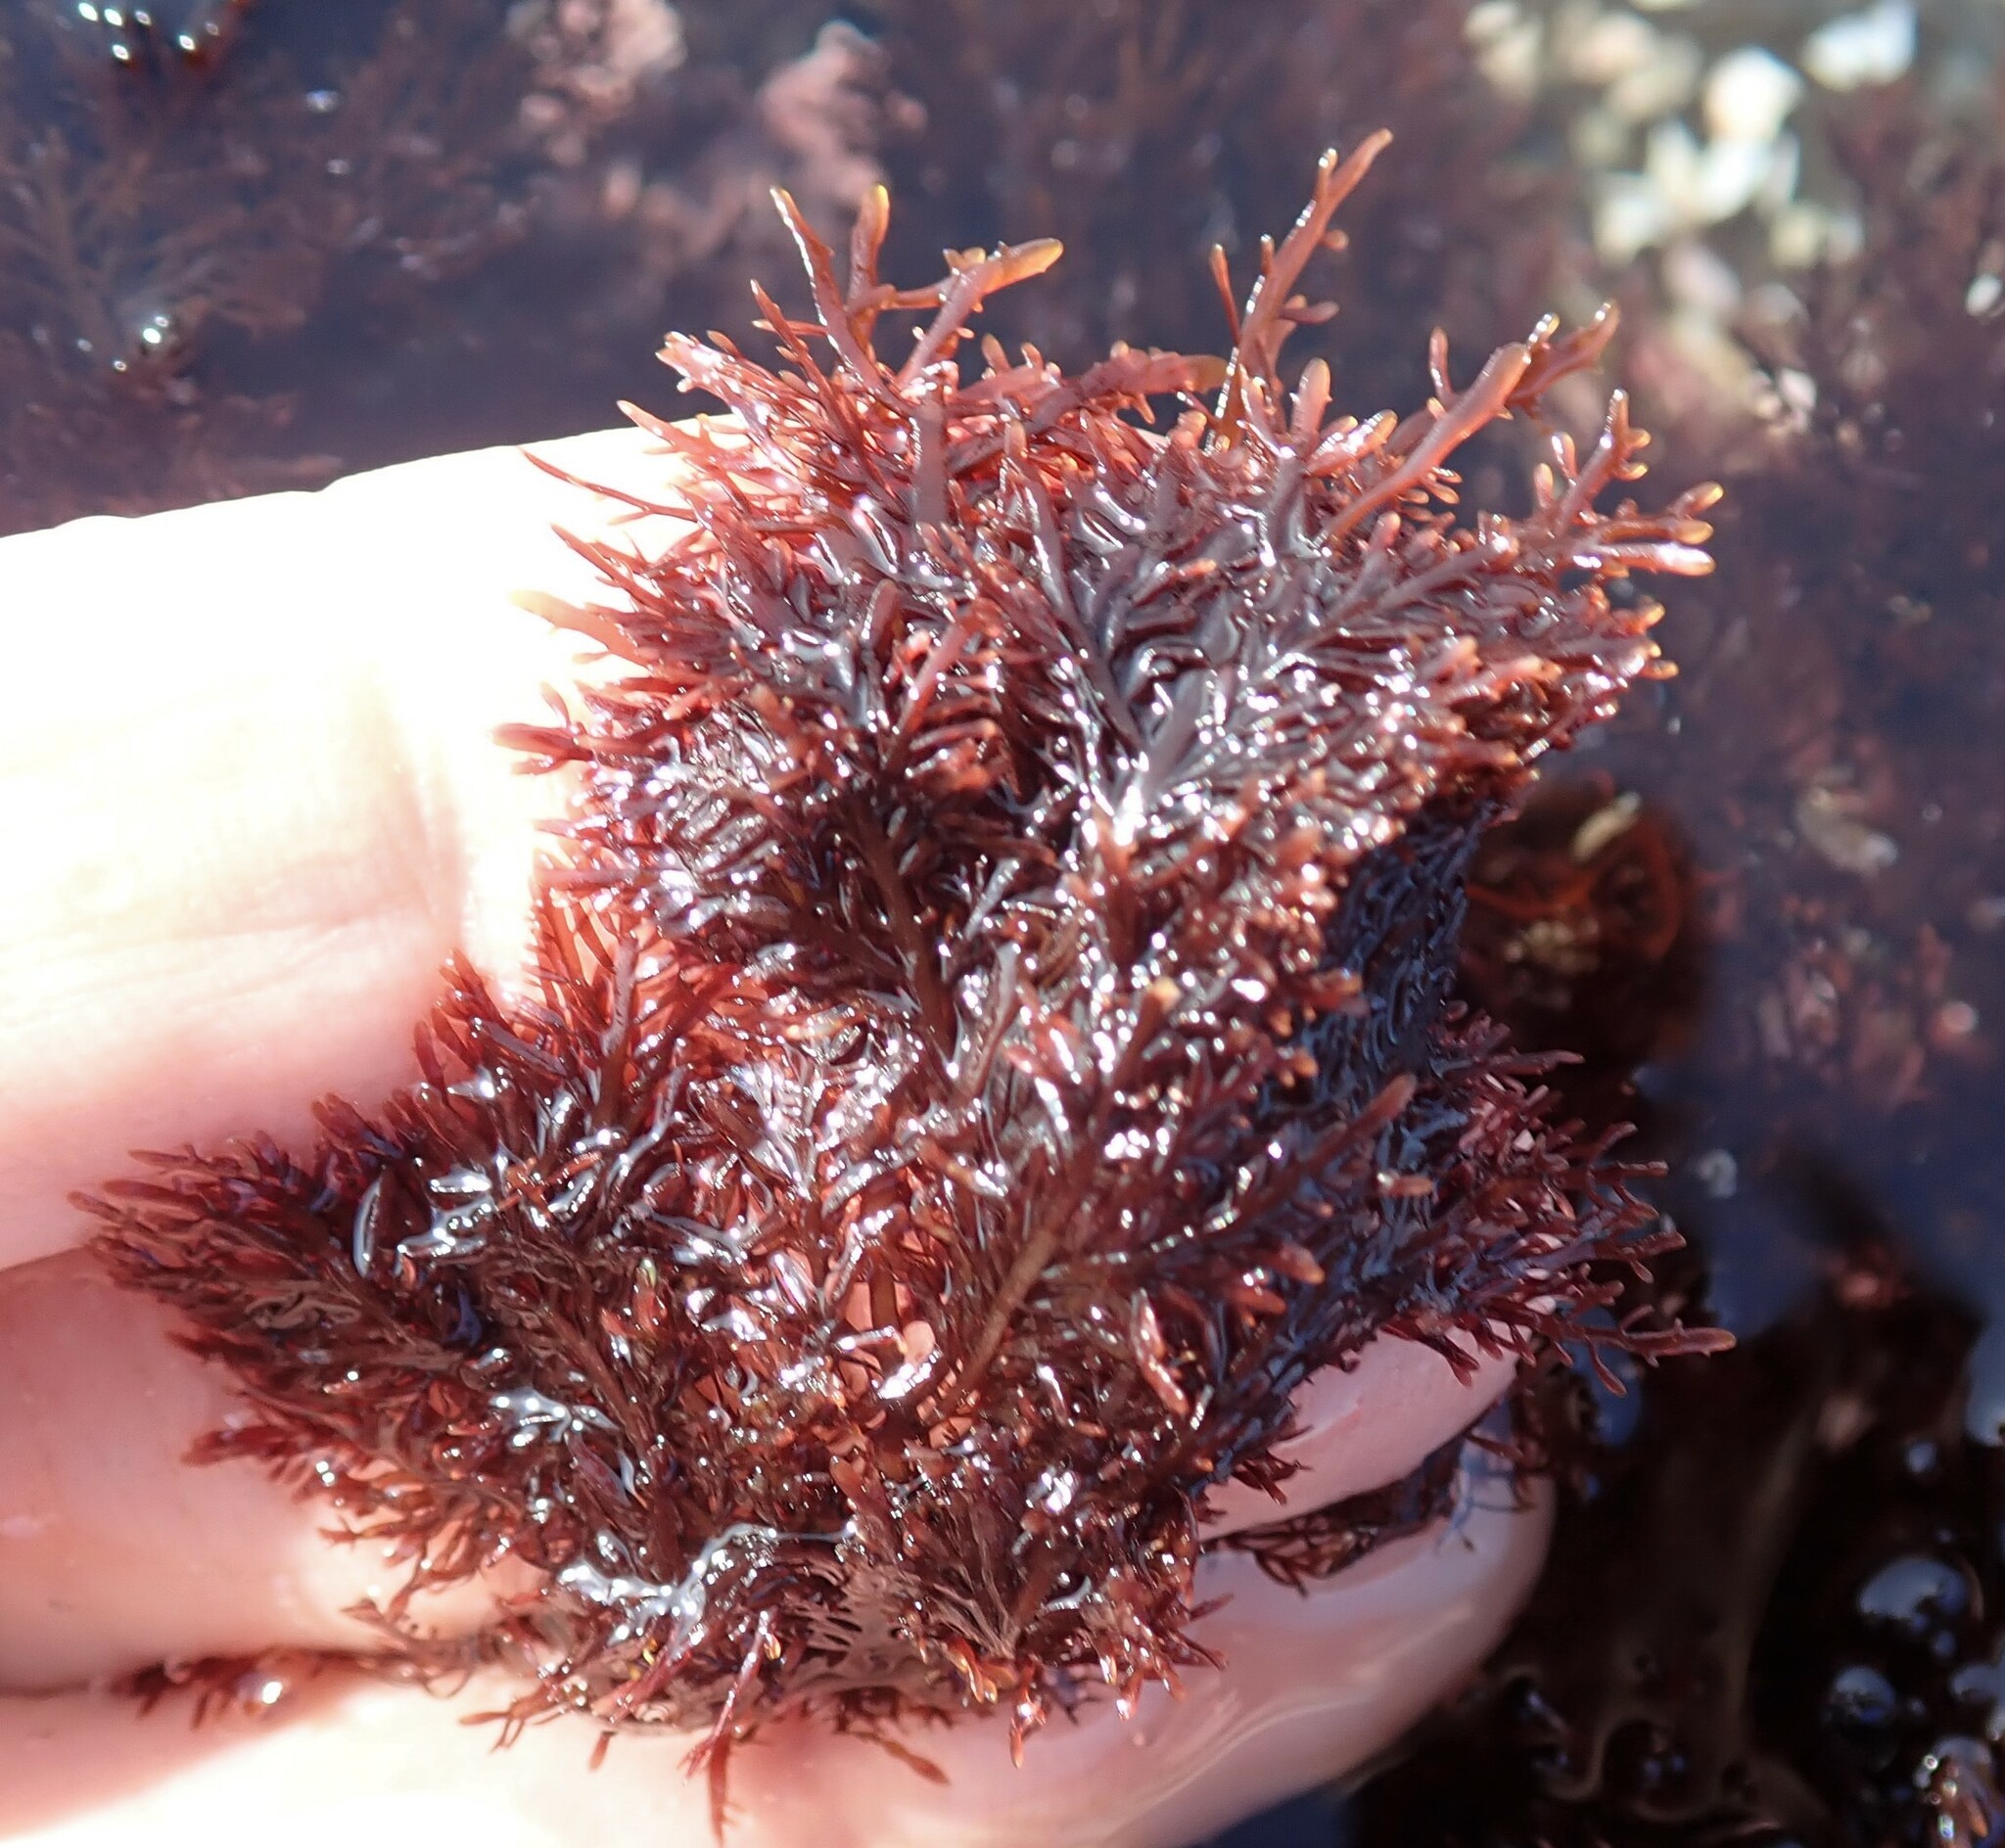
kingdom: Plantae
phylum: Rhodophyta
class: Florideophyceae
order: Gelidiales
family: Pterocladiaceae
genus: Pterocladiella
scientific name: Pterocladiella capillacea
